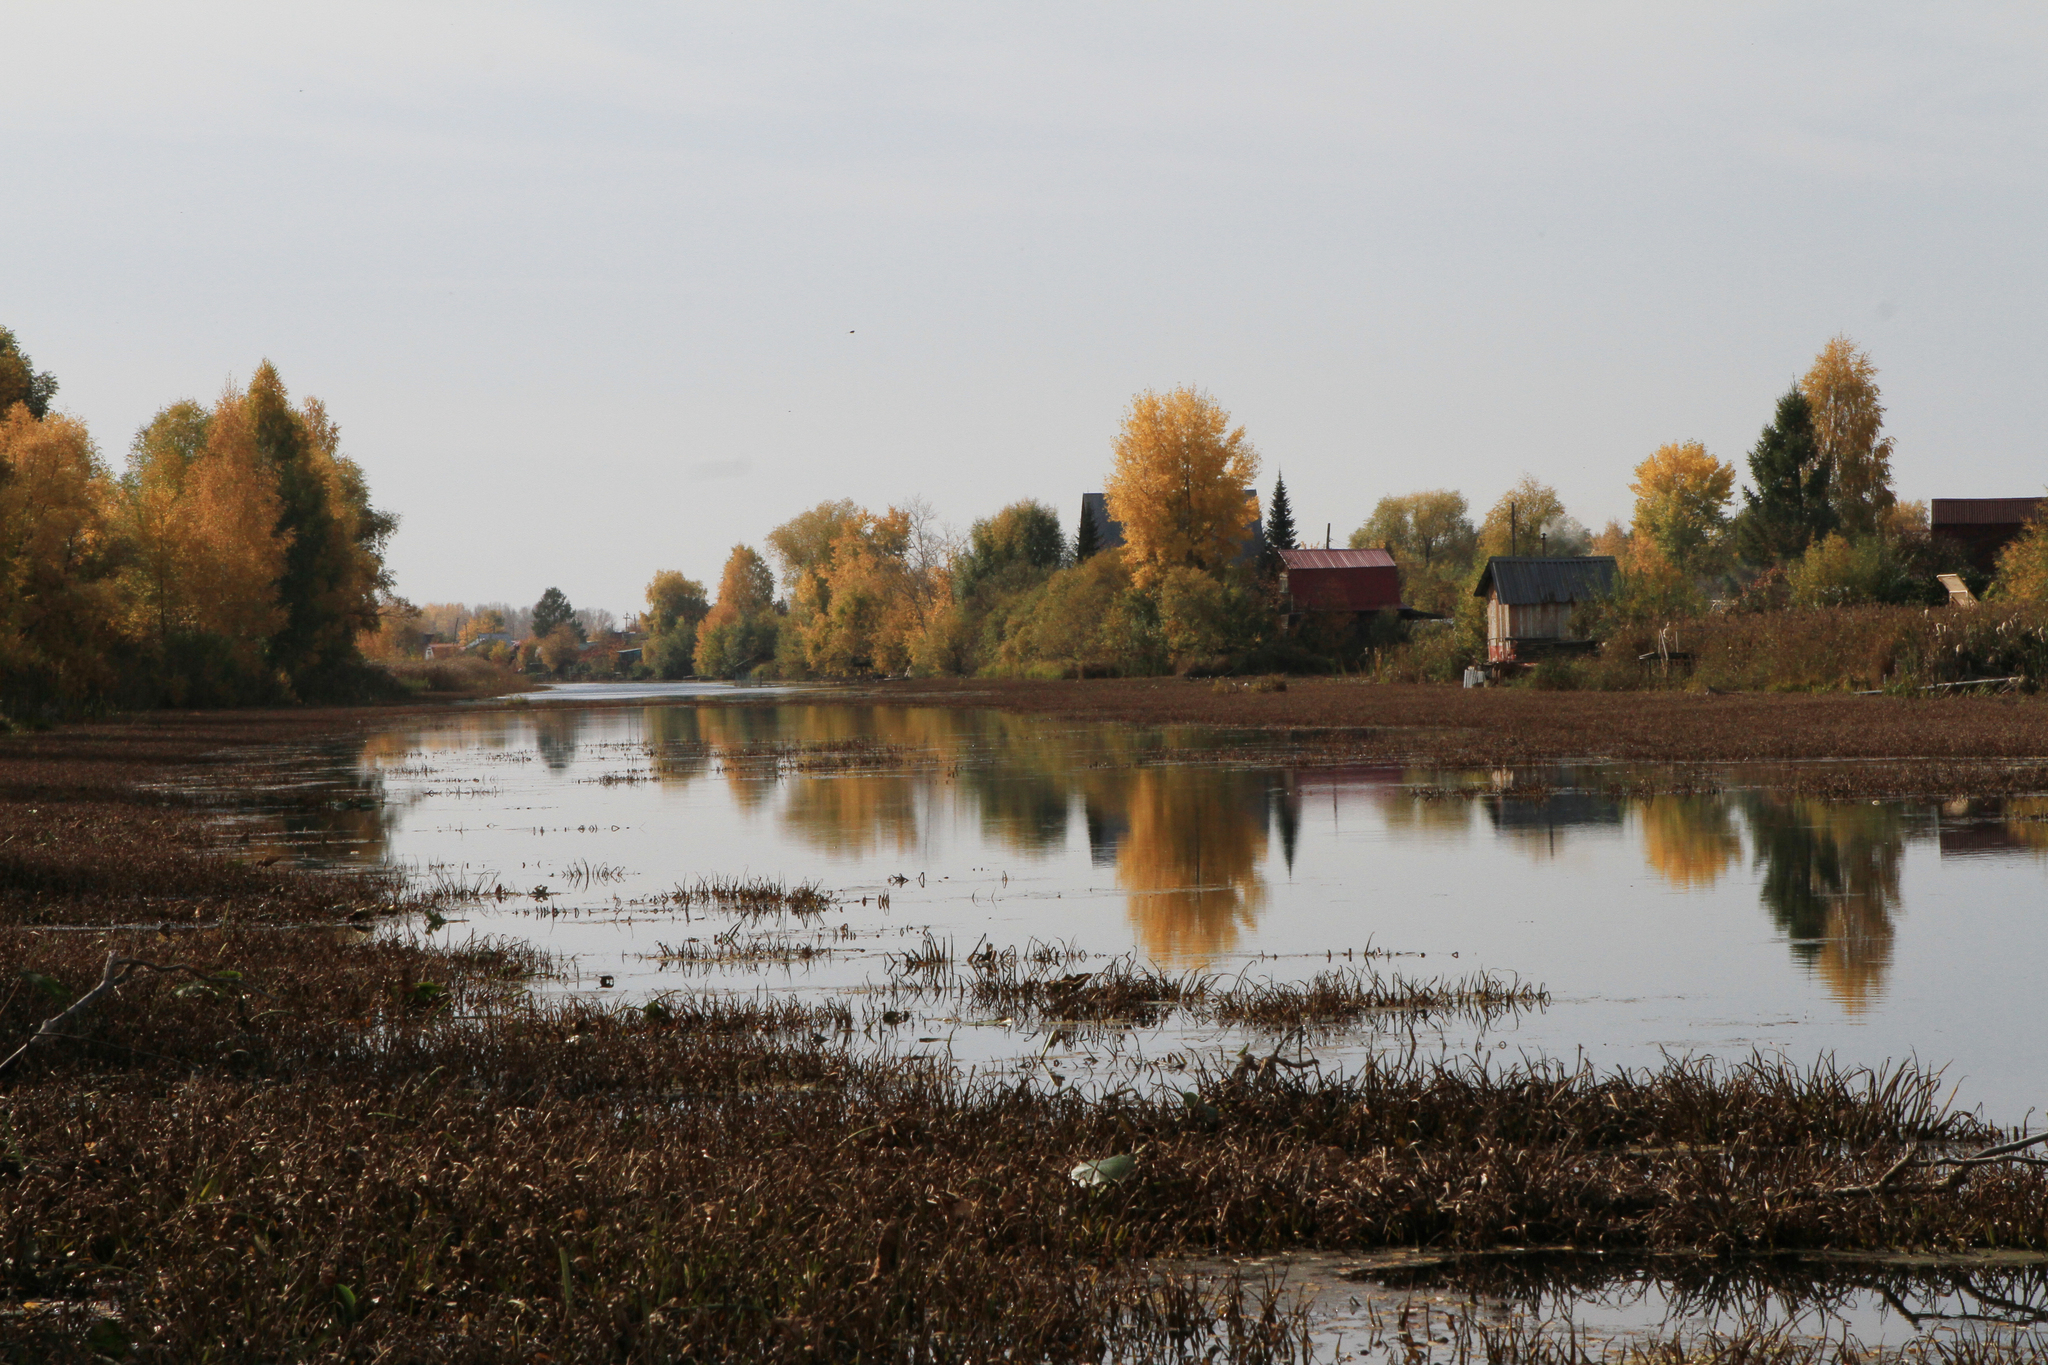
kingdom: Plantae
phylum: Tracheophyta
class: Liliopsida
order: Alismatales
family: Hydrocharitaceae
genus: Stratiotes
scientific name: Stratiotes aloides
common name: Water-soldier
